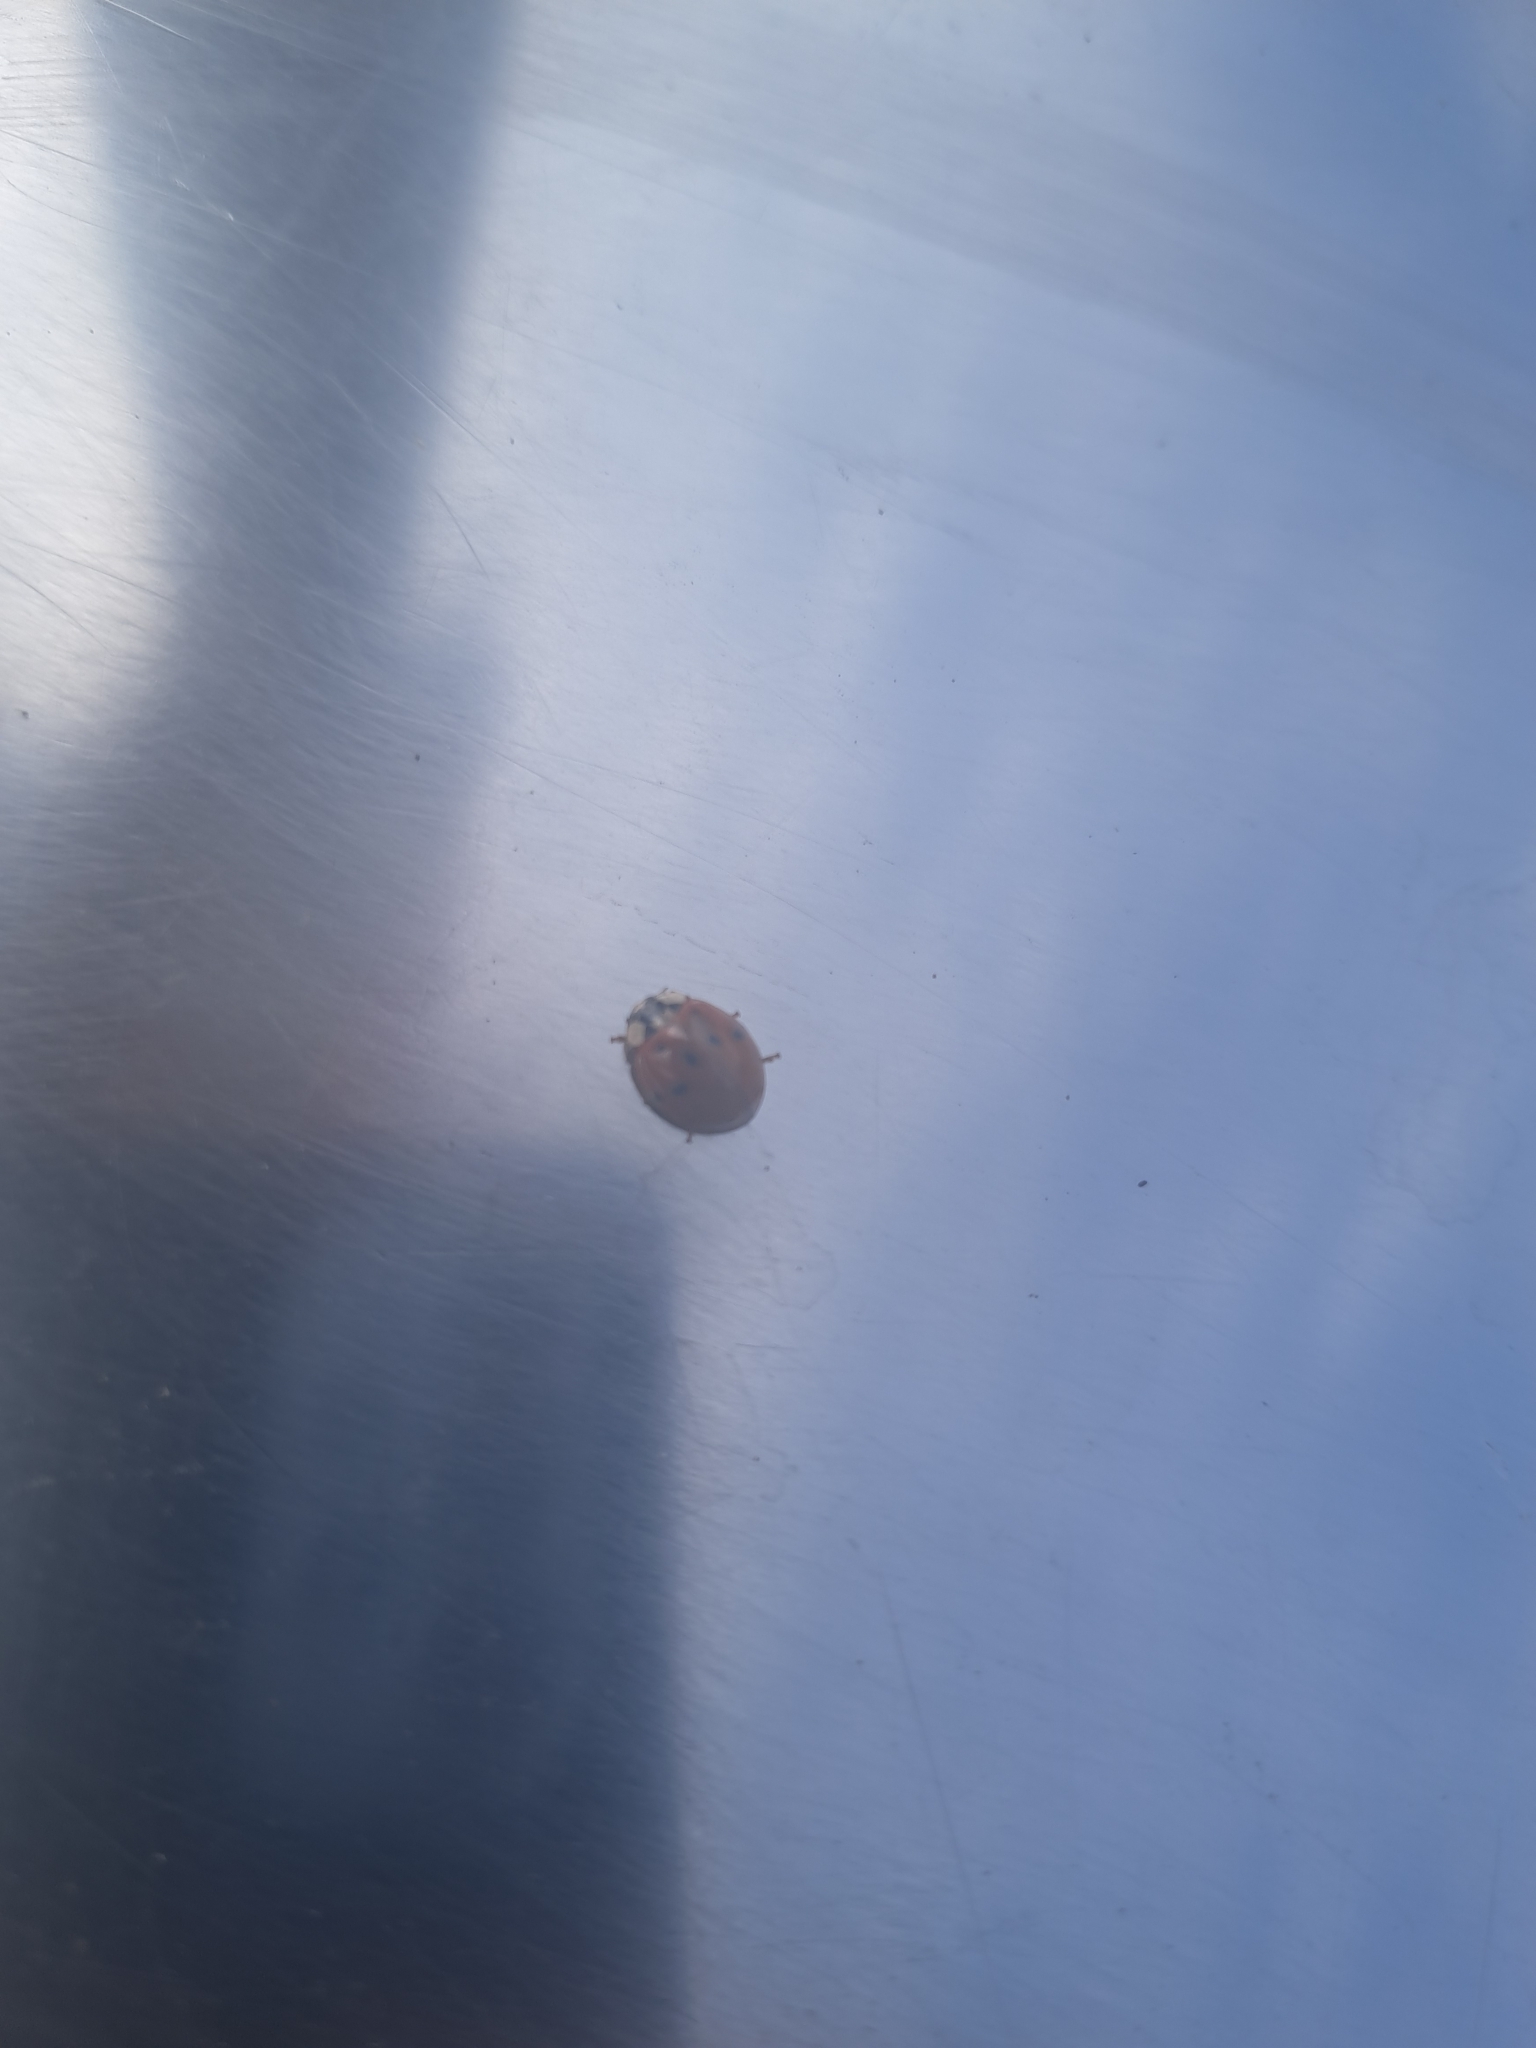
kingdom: Animalia
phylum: Arthropoda
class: Insecta
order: Coleoptera
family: Coccinellidae
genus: Harmonia
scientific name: Harmonia axyridis
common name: Harlequin ladybird
